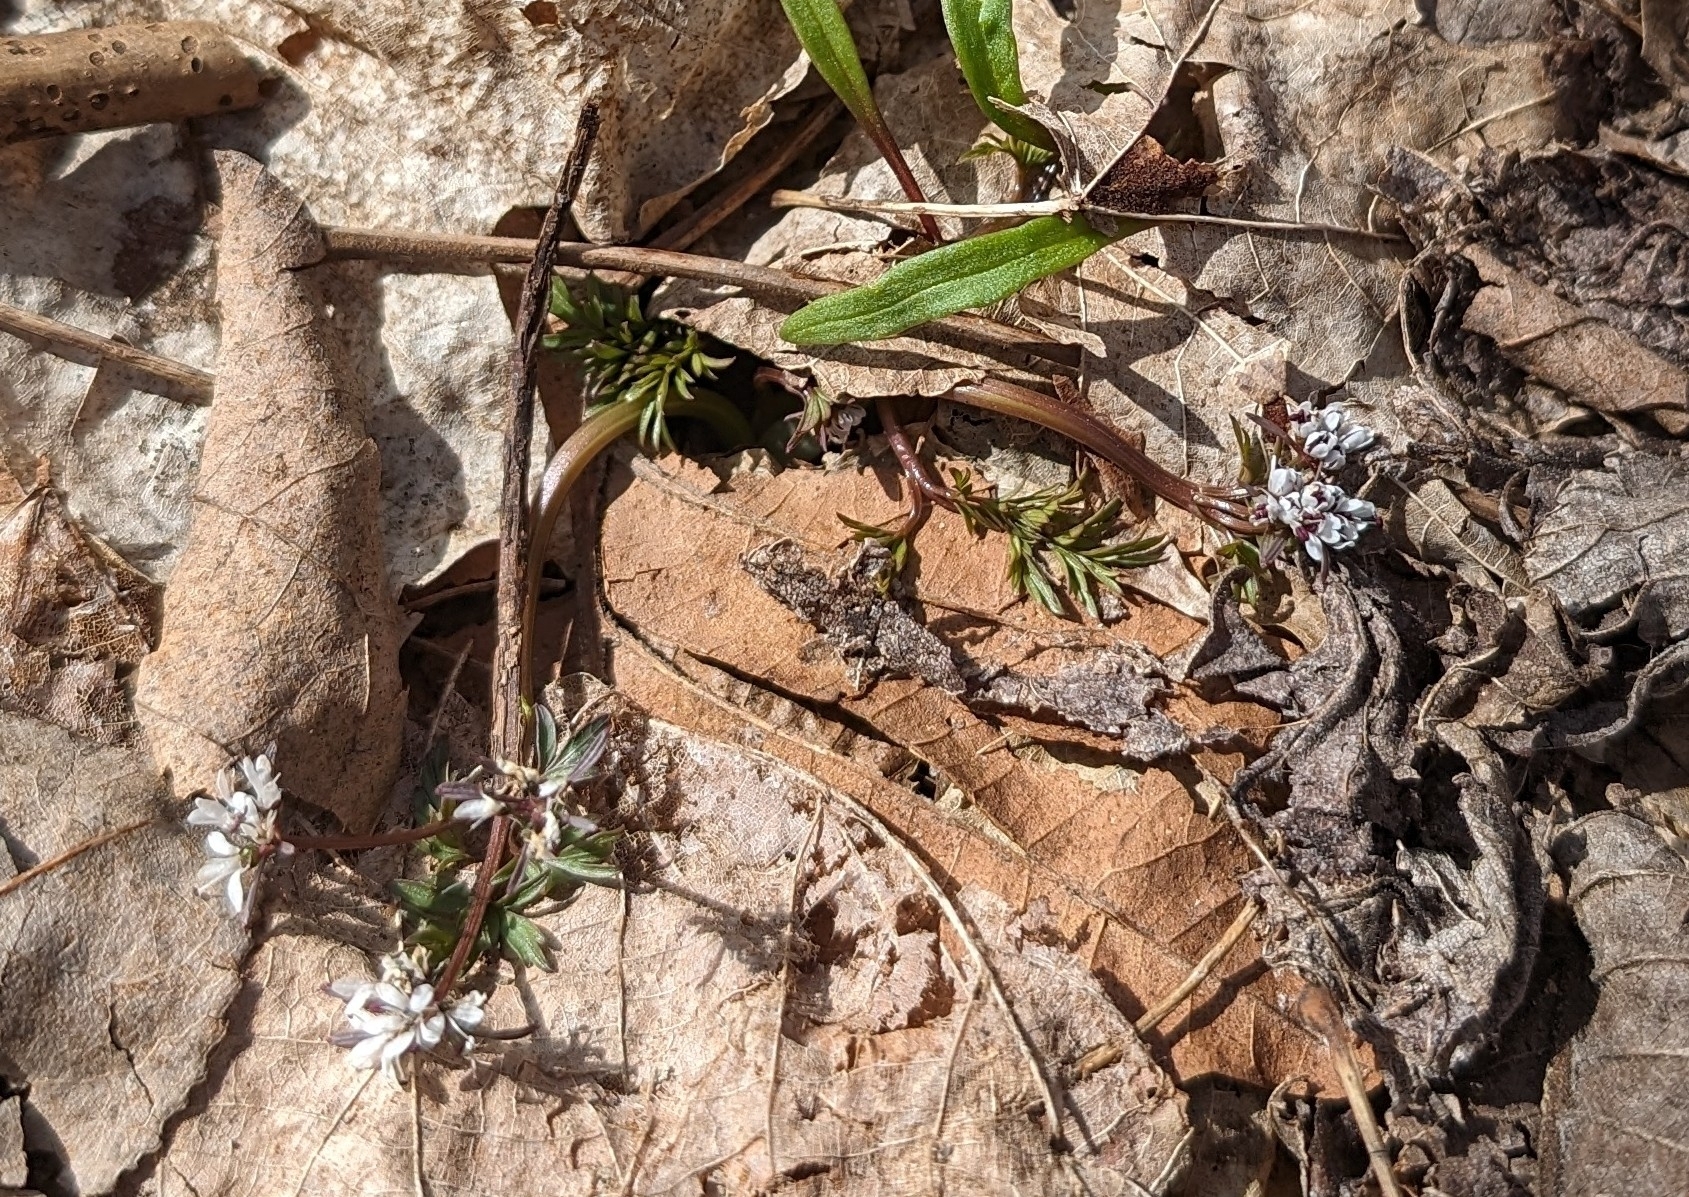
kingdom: Plantae
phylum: Tracheophyta
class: Magnoliopsida
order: Apiales
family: Apiaceae
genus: Erigenia
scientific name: Erigenia bulbosa
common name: Pepper-and-salt
